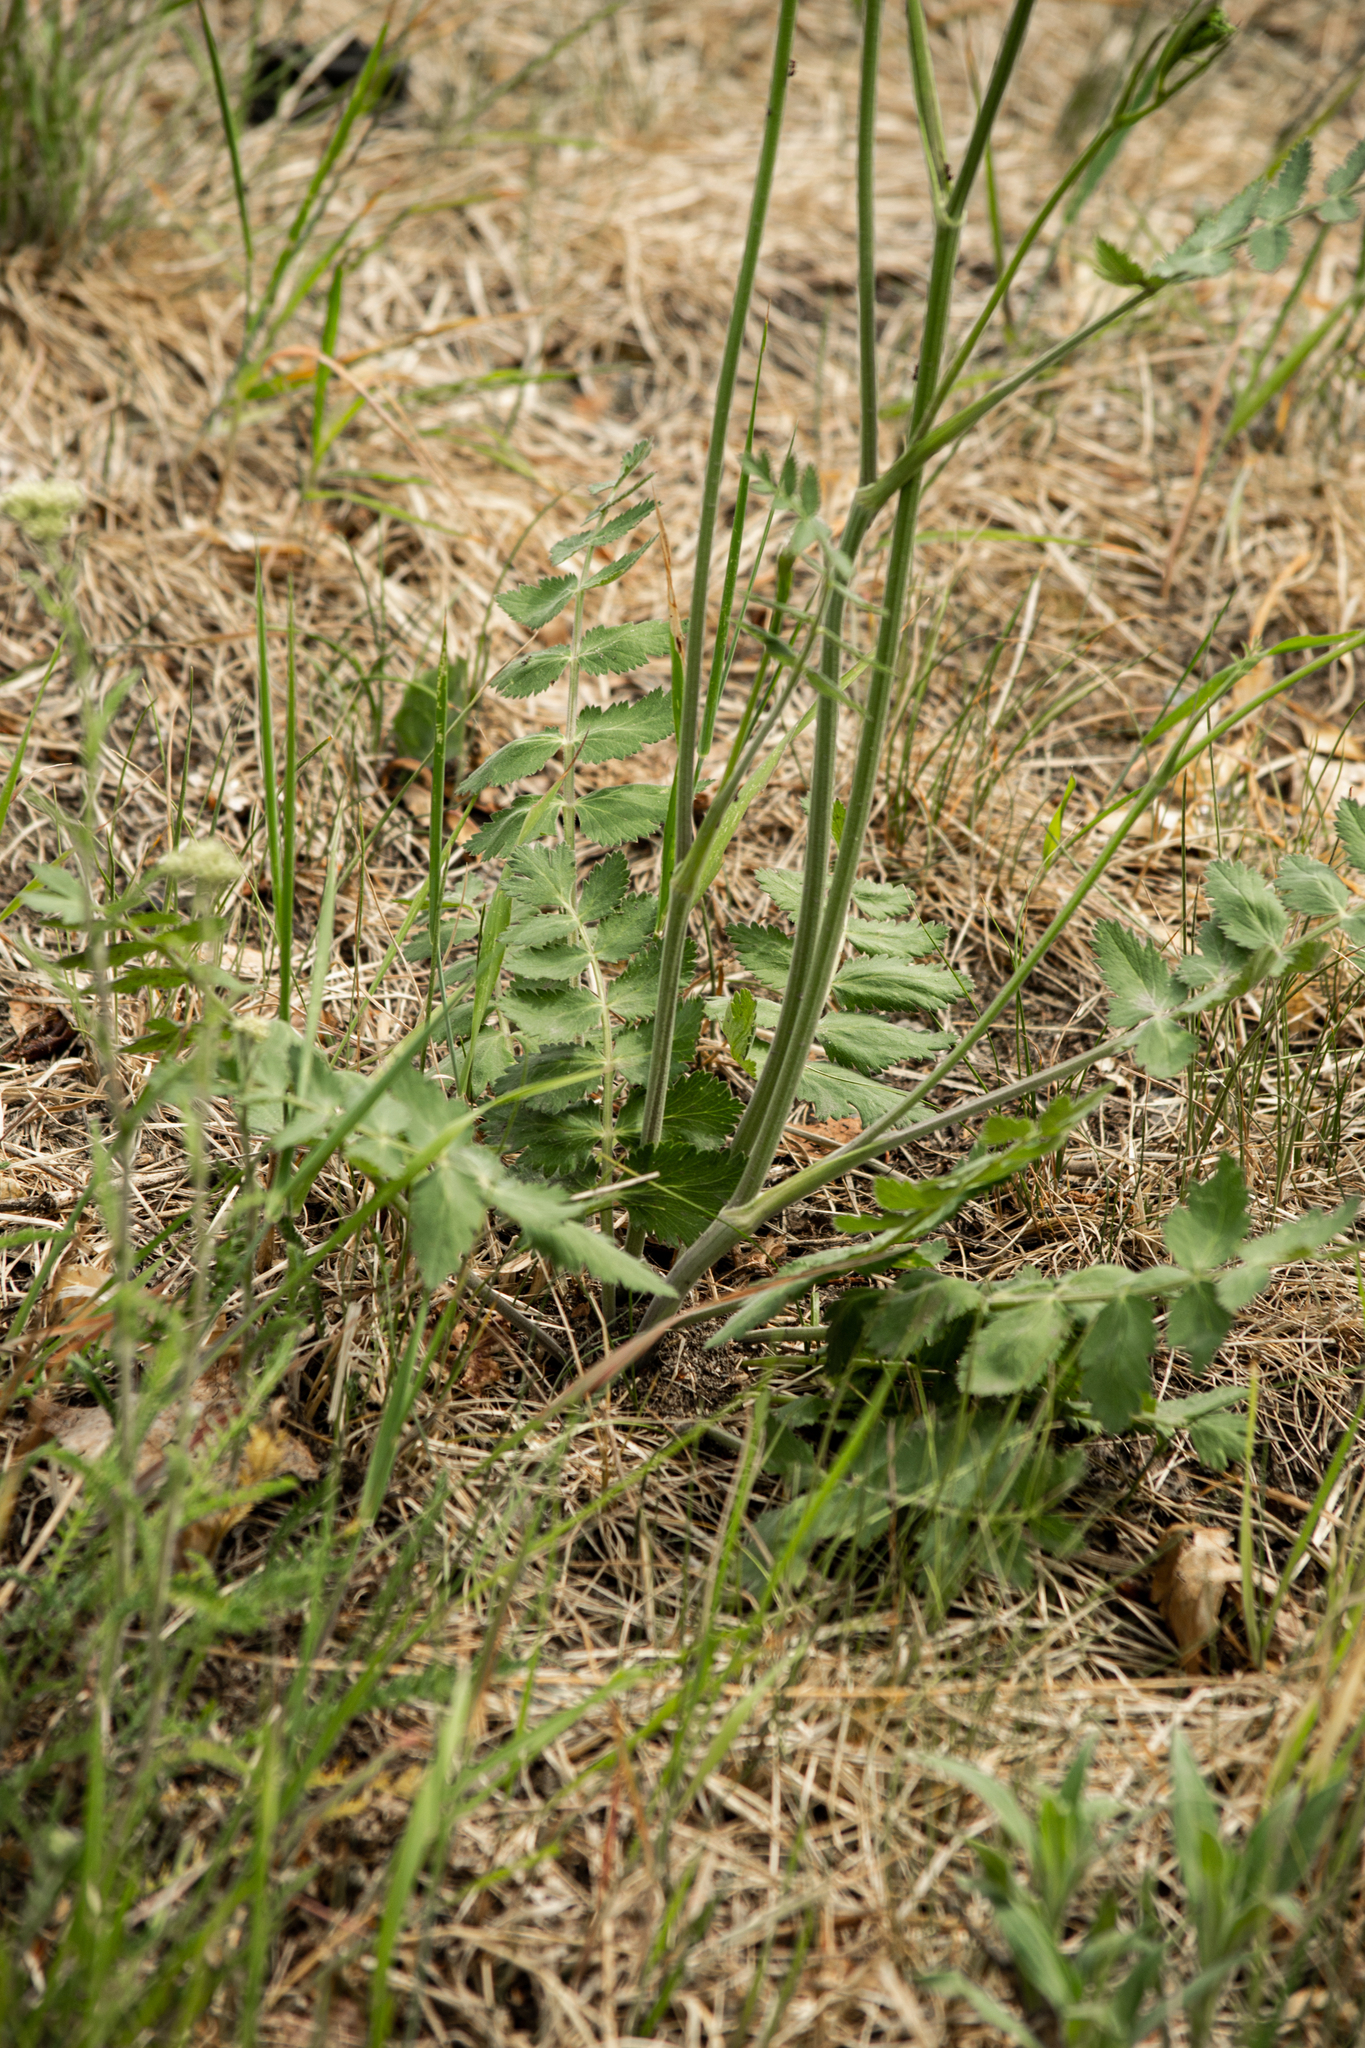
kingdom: Plantae
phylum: Tracheophyta
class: Magnoliopsida
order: Apiales
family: Apiaceae
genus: Pimpinella
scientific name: Pimpinella saxifraga
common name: Burnet-saxifrage
